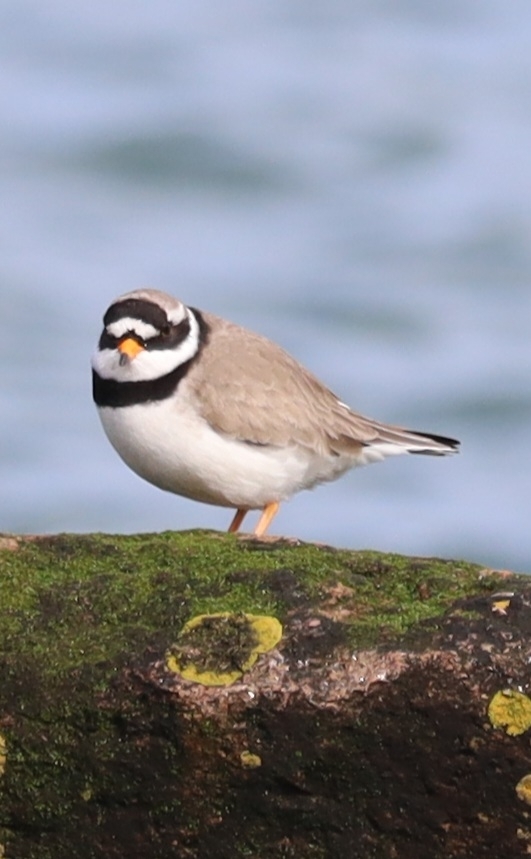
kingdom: Animalia
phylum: Chordata
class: Aves
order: Charadriiformes
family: Charadriidae
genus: Charadrius
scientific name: Charadrius hiaticula
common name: Common ringed plover
